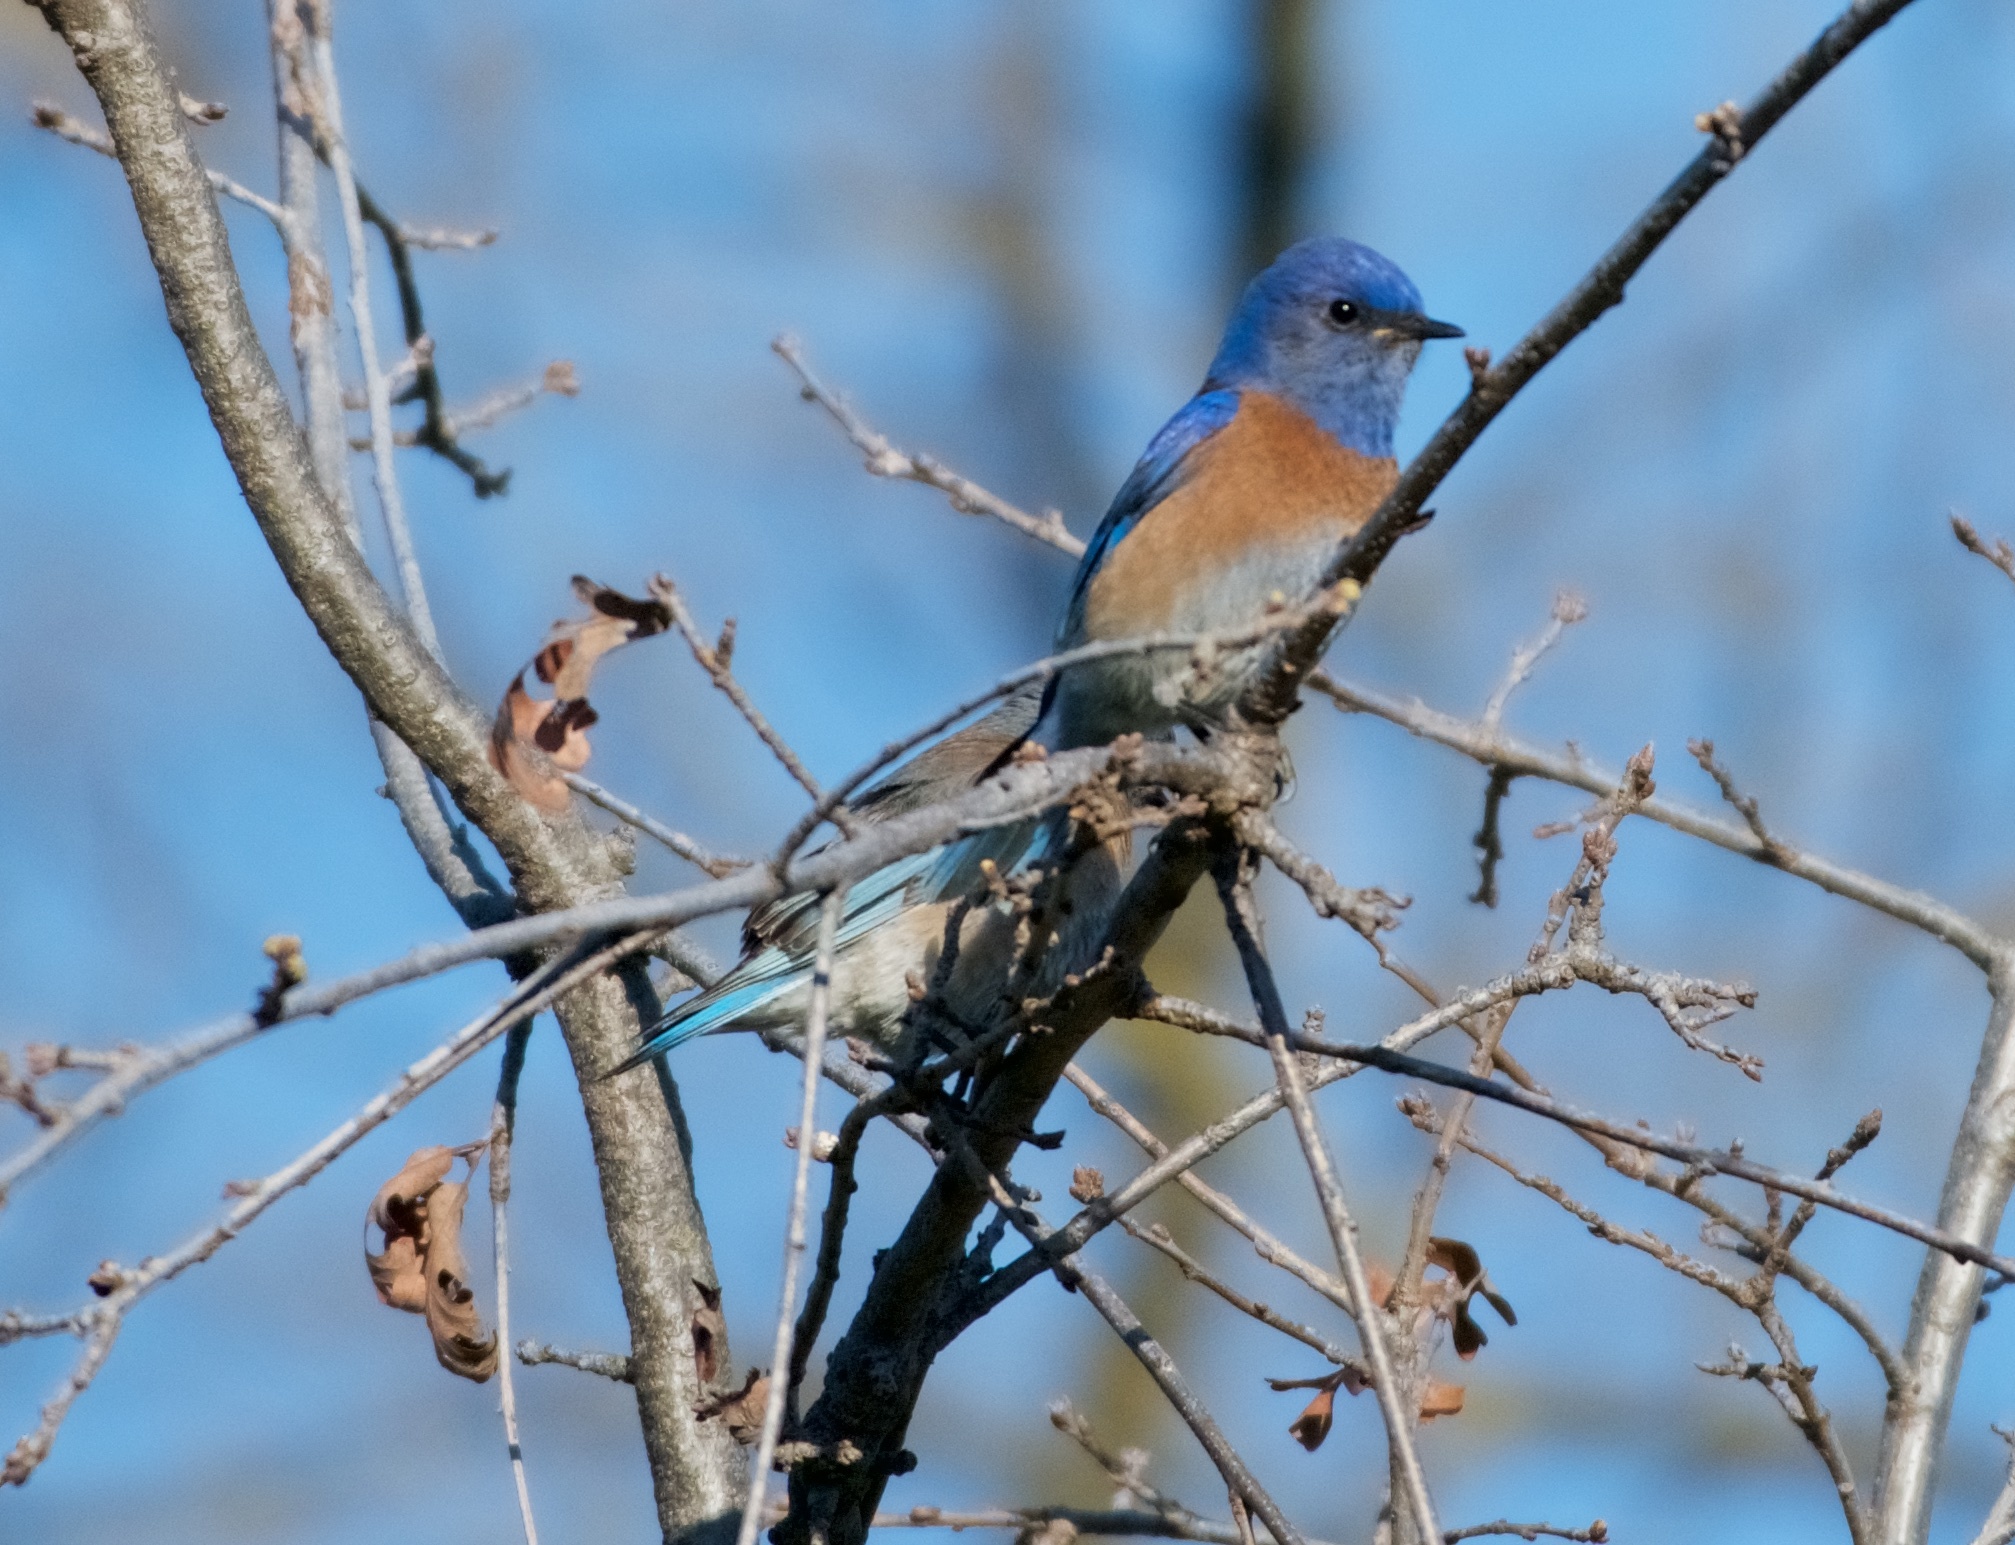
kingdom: Animalia
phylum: Chordata
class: Aves
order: Passeriformes
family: Turdidae
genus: Sialia
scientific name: Sialia mexicana
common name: Western bluebird
